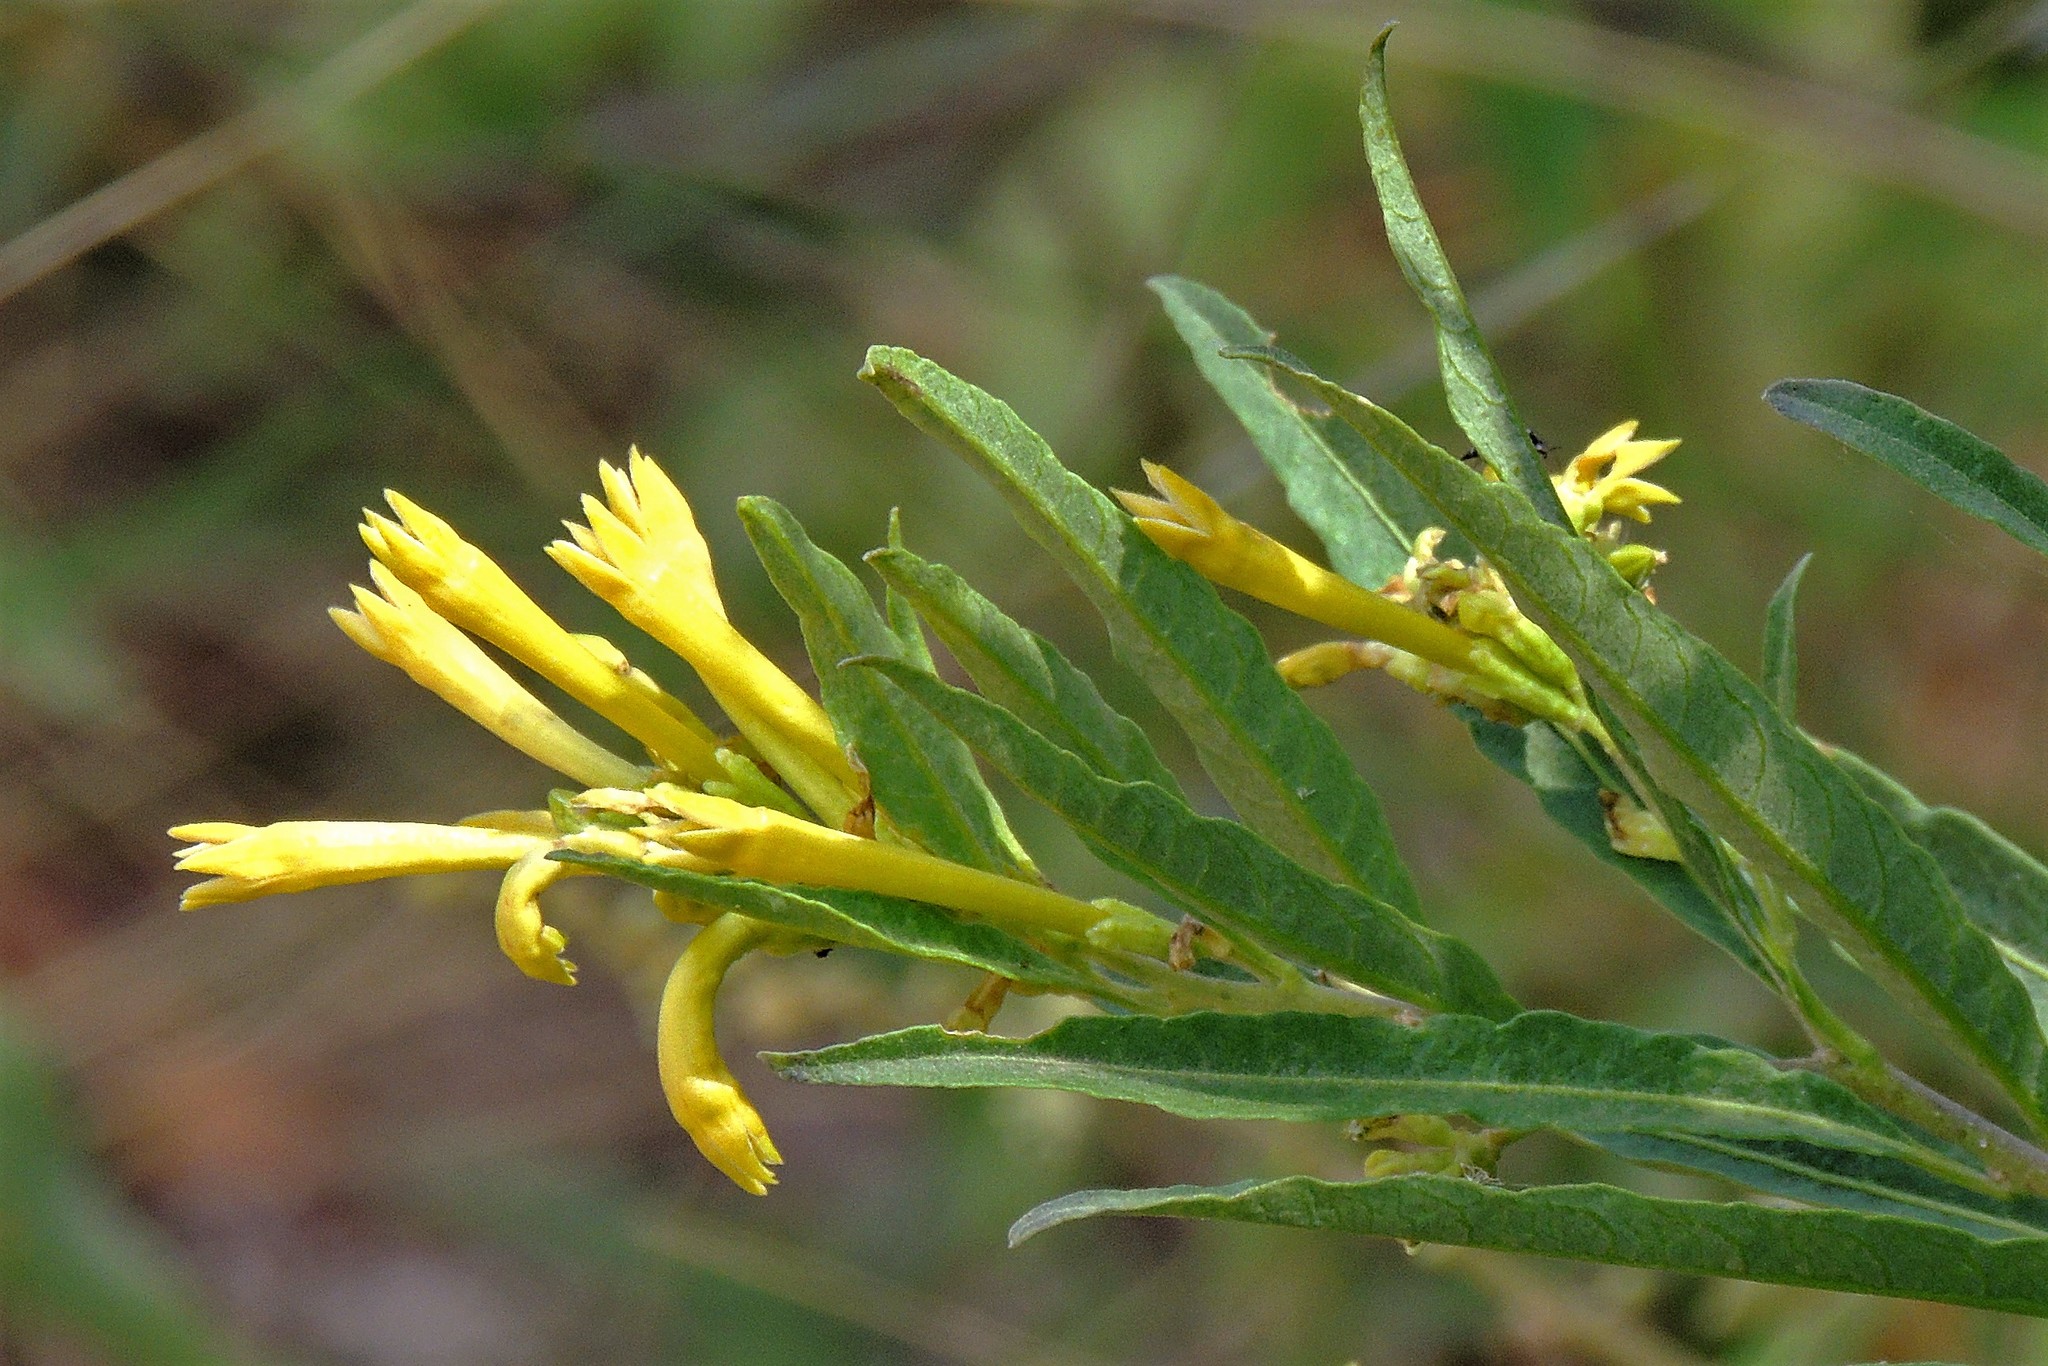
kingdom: Plantae
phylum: Tracheophyta
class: Magnoliopsida
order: Solanales
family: Solanaceae
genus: Cestrum
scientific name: Cestrum parqui
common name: Chilean cestrum
